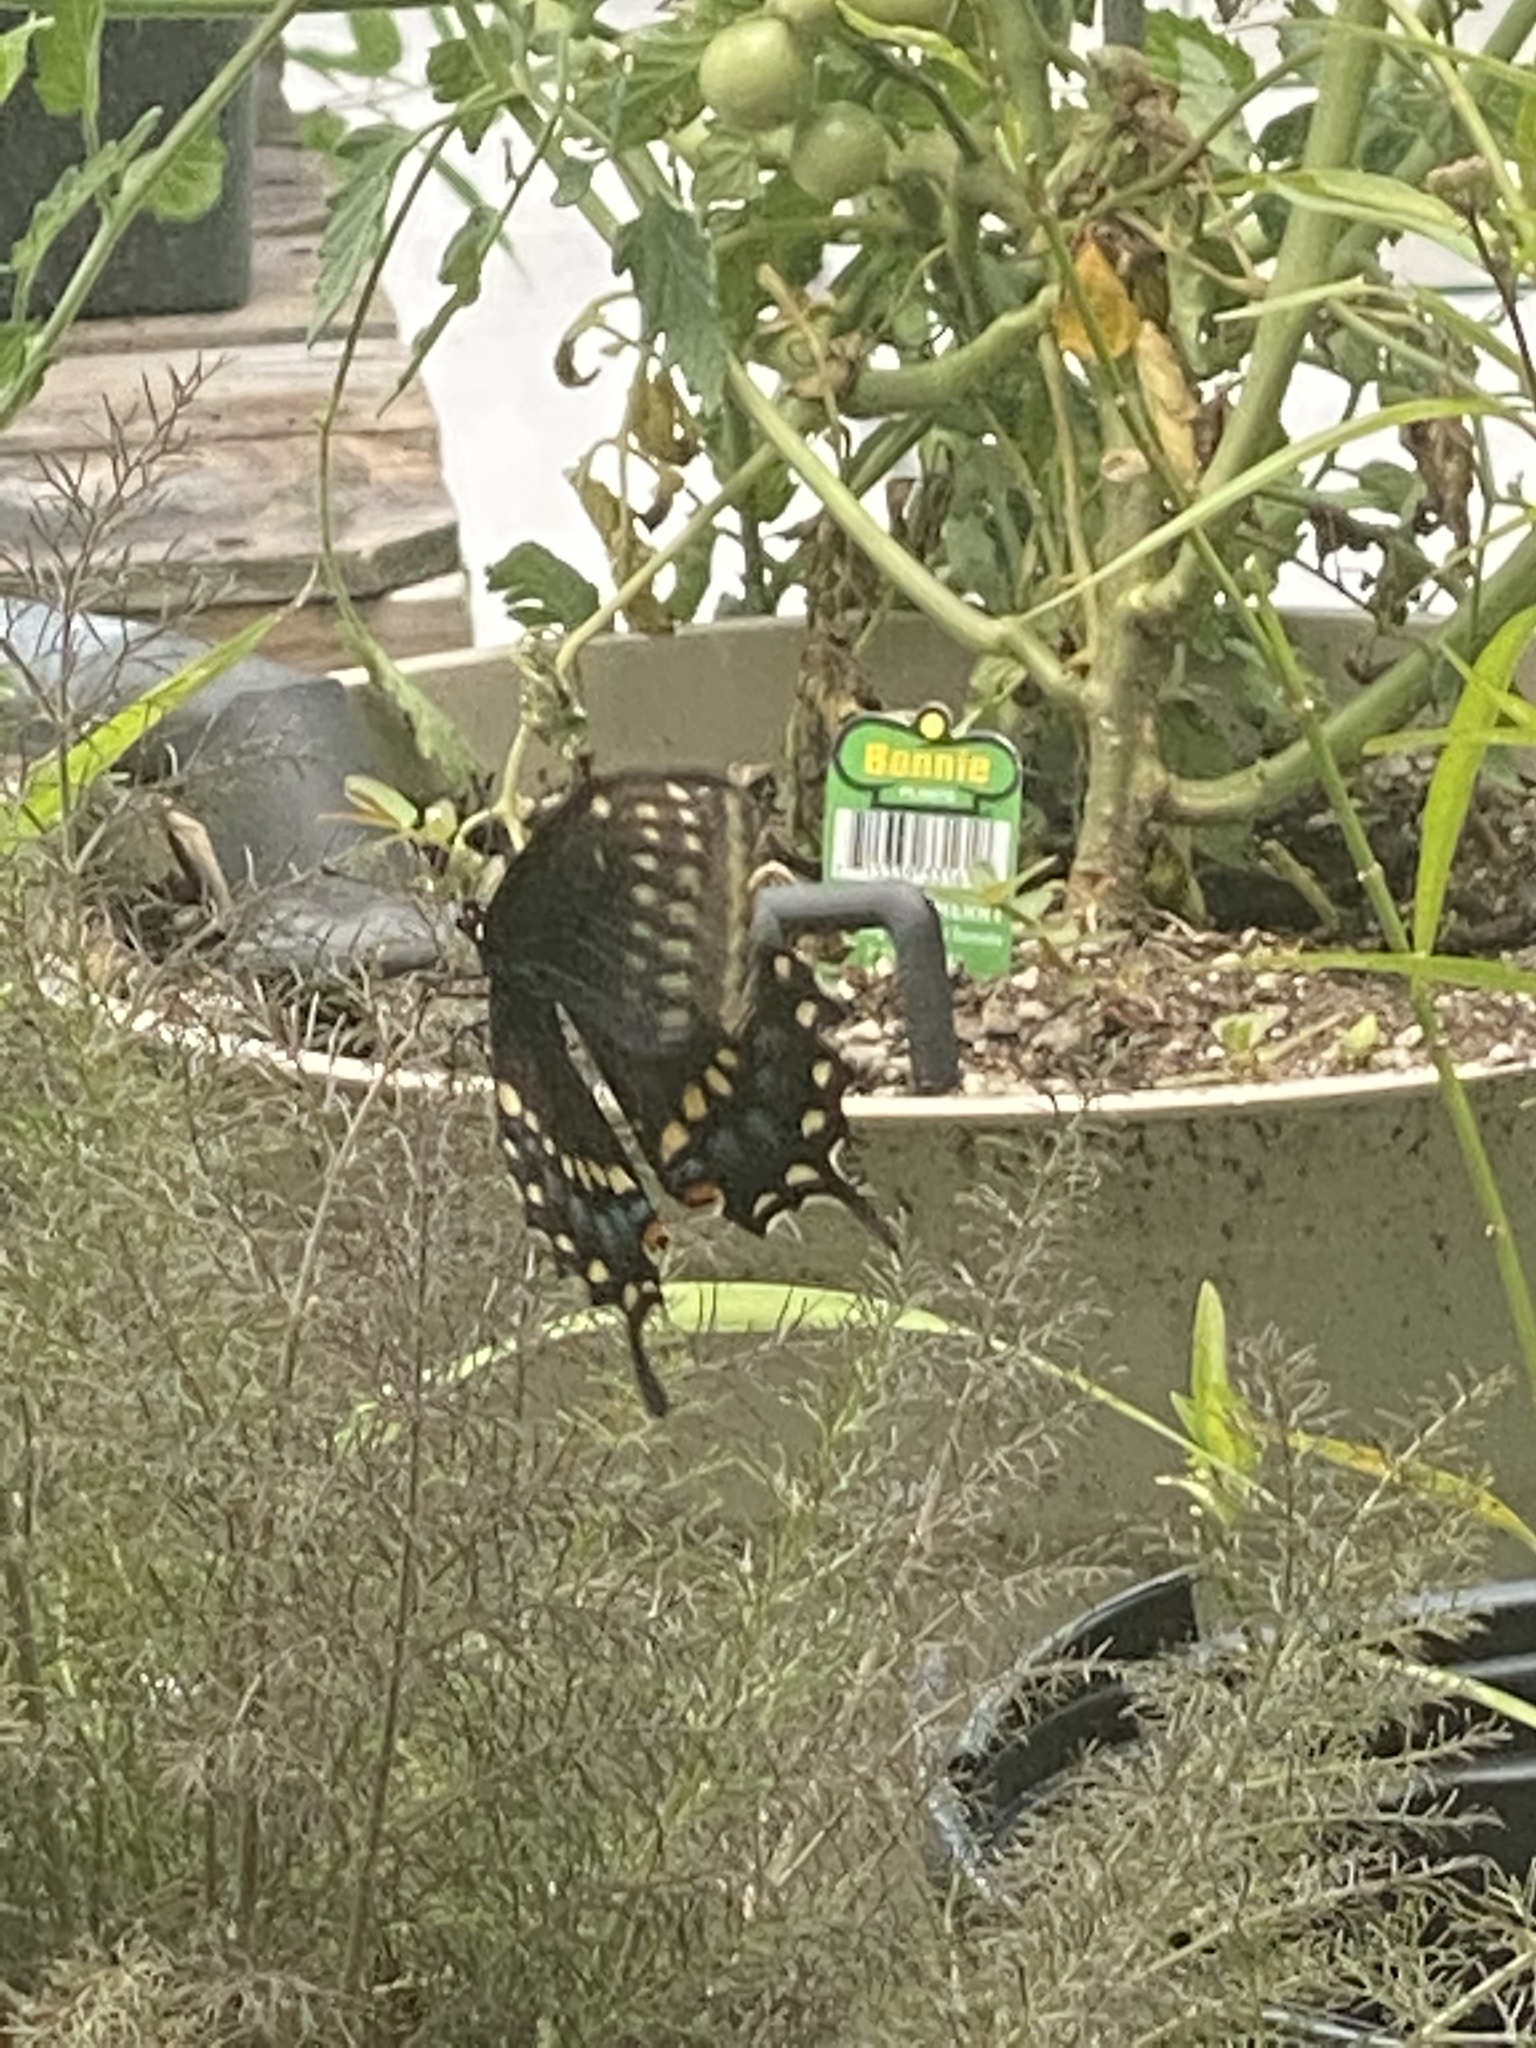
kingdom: Animalia
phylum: Arthropoda
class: Insecta
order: Lepidoptera
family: Papilionidae
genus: Papilio
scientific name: Papilio polyxenes
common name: Black swallowtail
